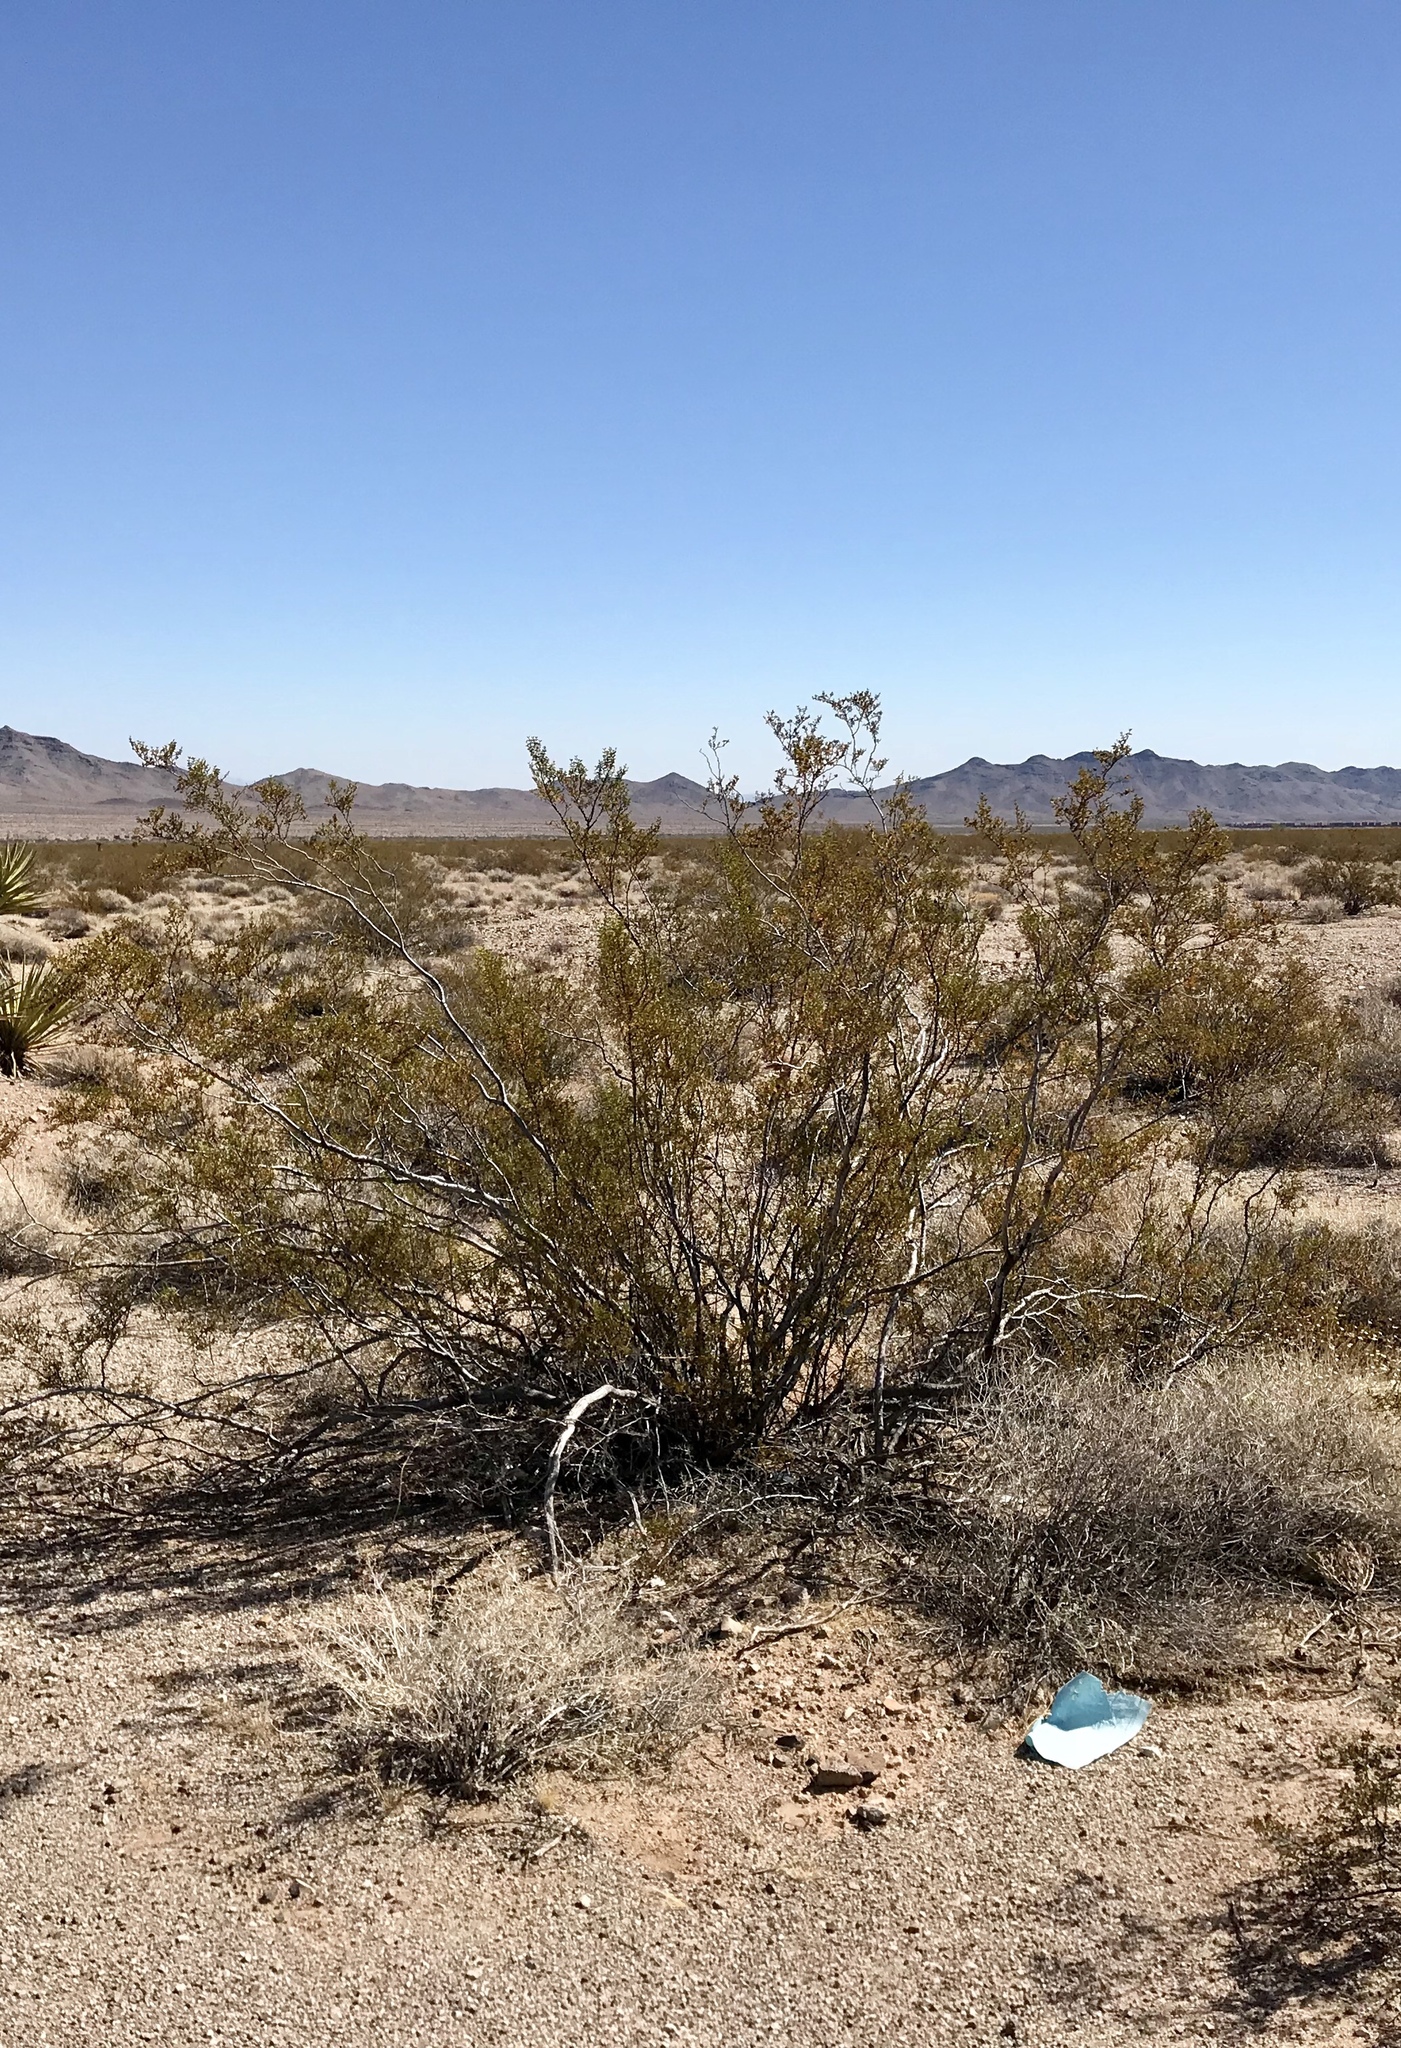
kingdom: Plantae
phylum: Tracheophyta
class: Magnoliopsida
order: Zygophyllales
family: Zygophyllaceae
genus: Larrea
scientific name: Larrea tridentata
